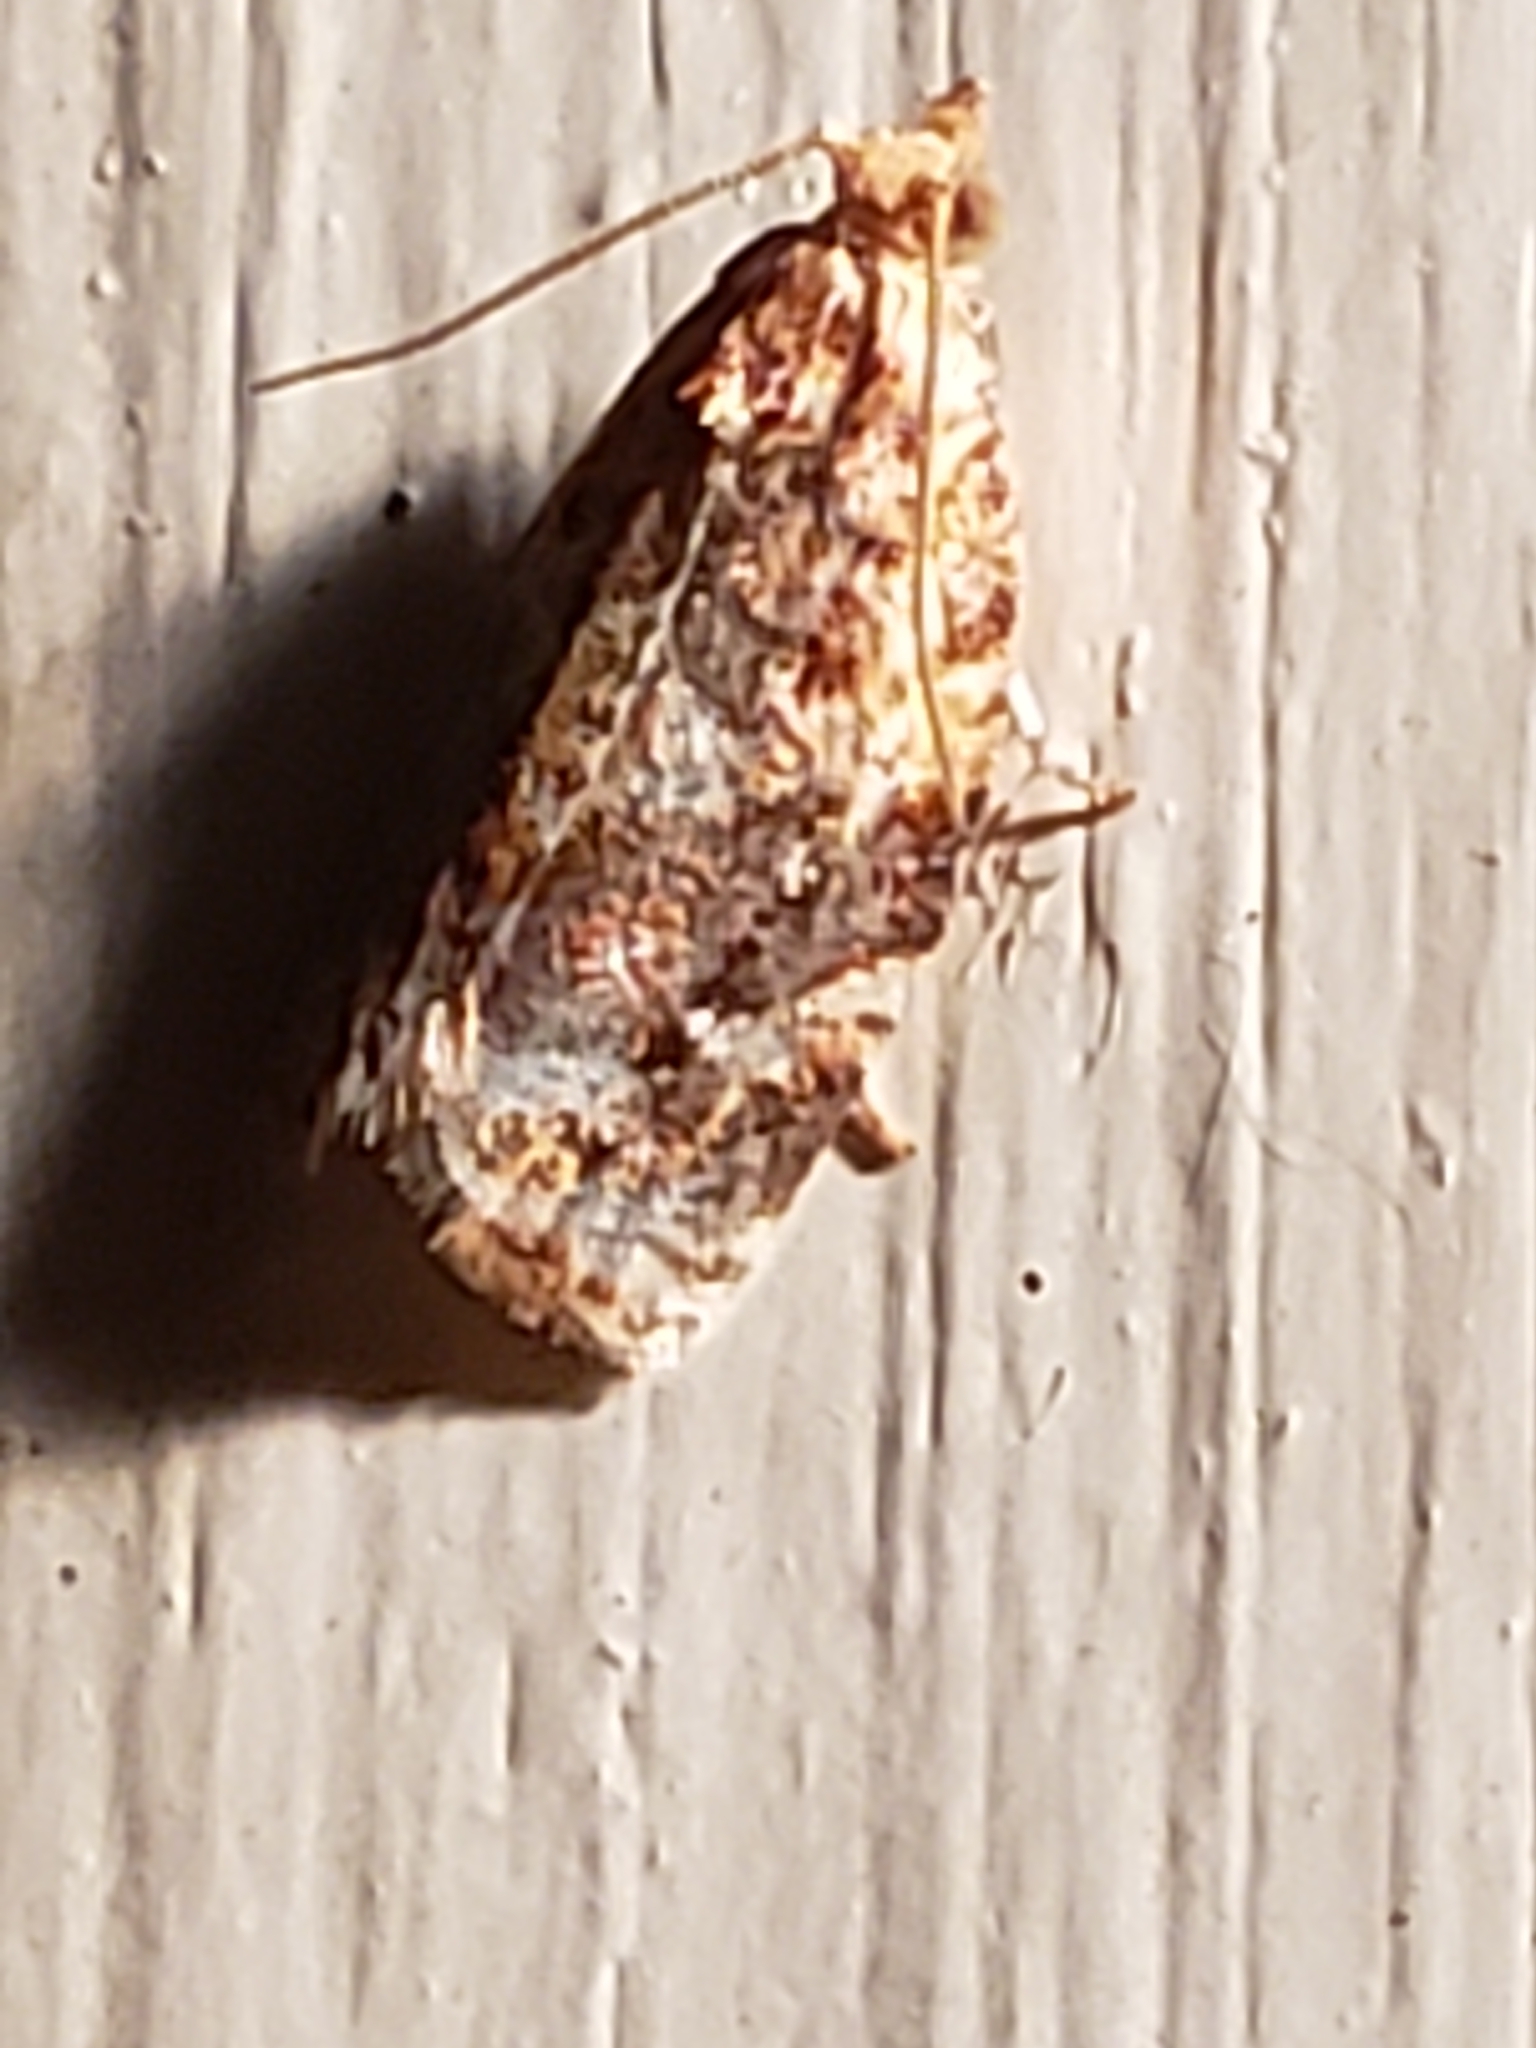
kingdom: Animalia
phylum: Arthropoda
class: Insecta
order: Lepidoptera
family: Tortricidae
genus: Argyrotaenia
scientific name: Argyrotaenia velutinana
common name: Red-banded leafroller moth
